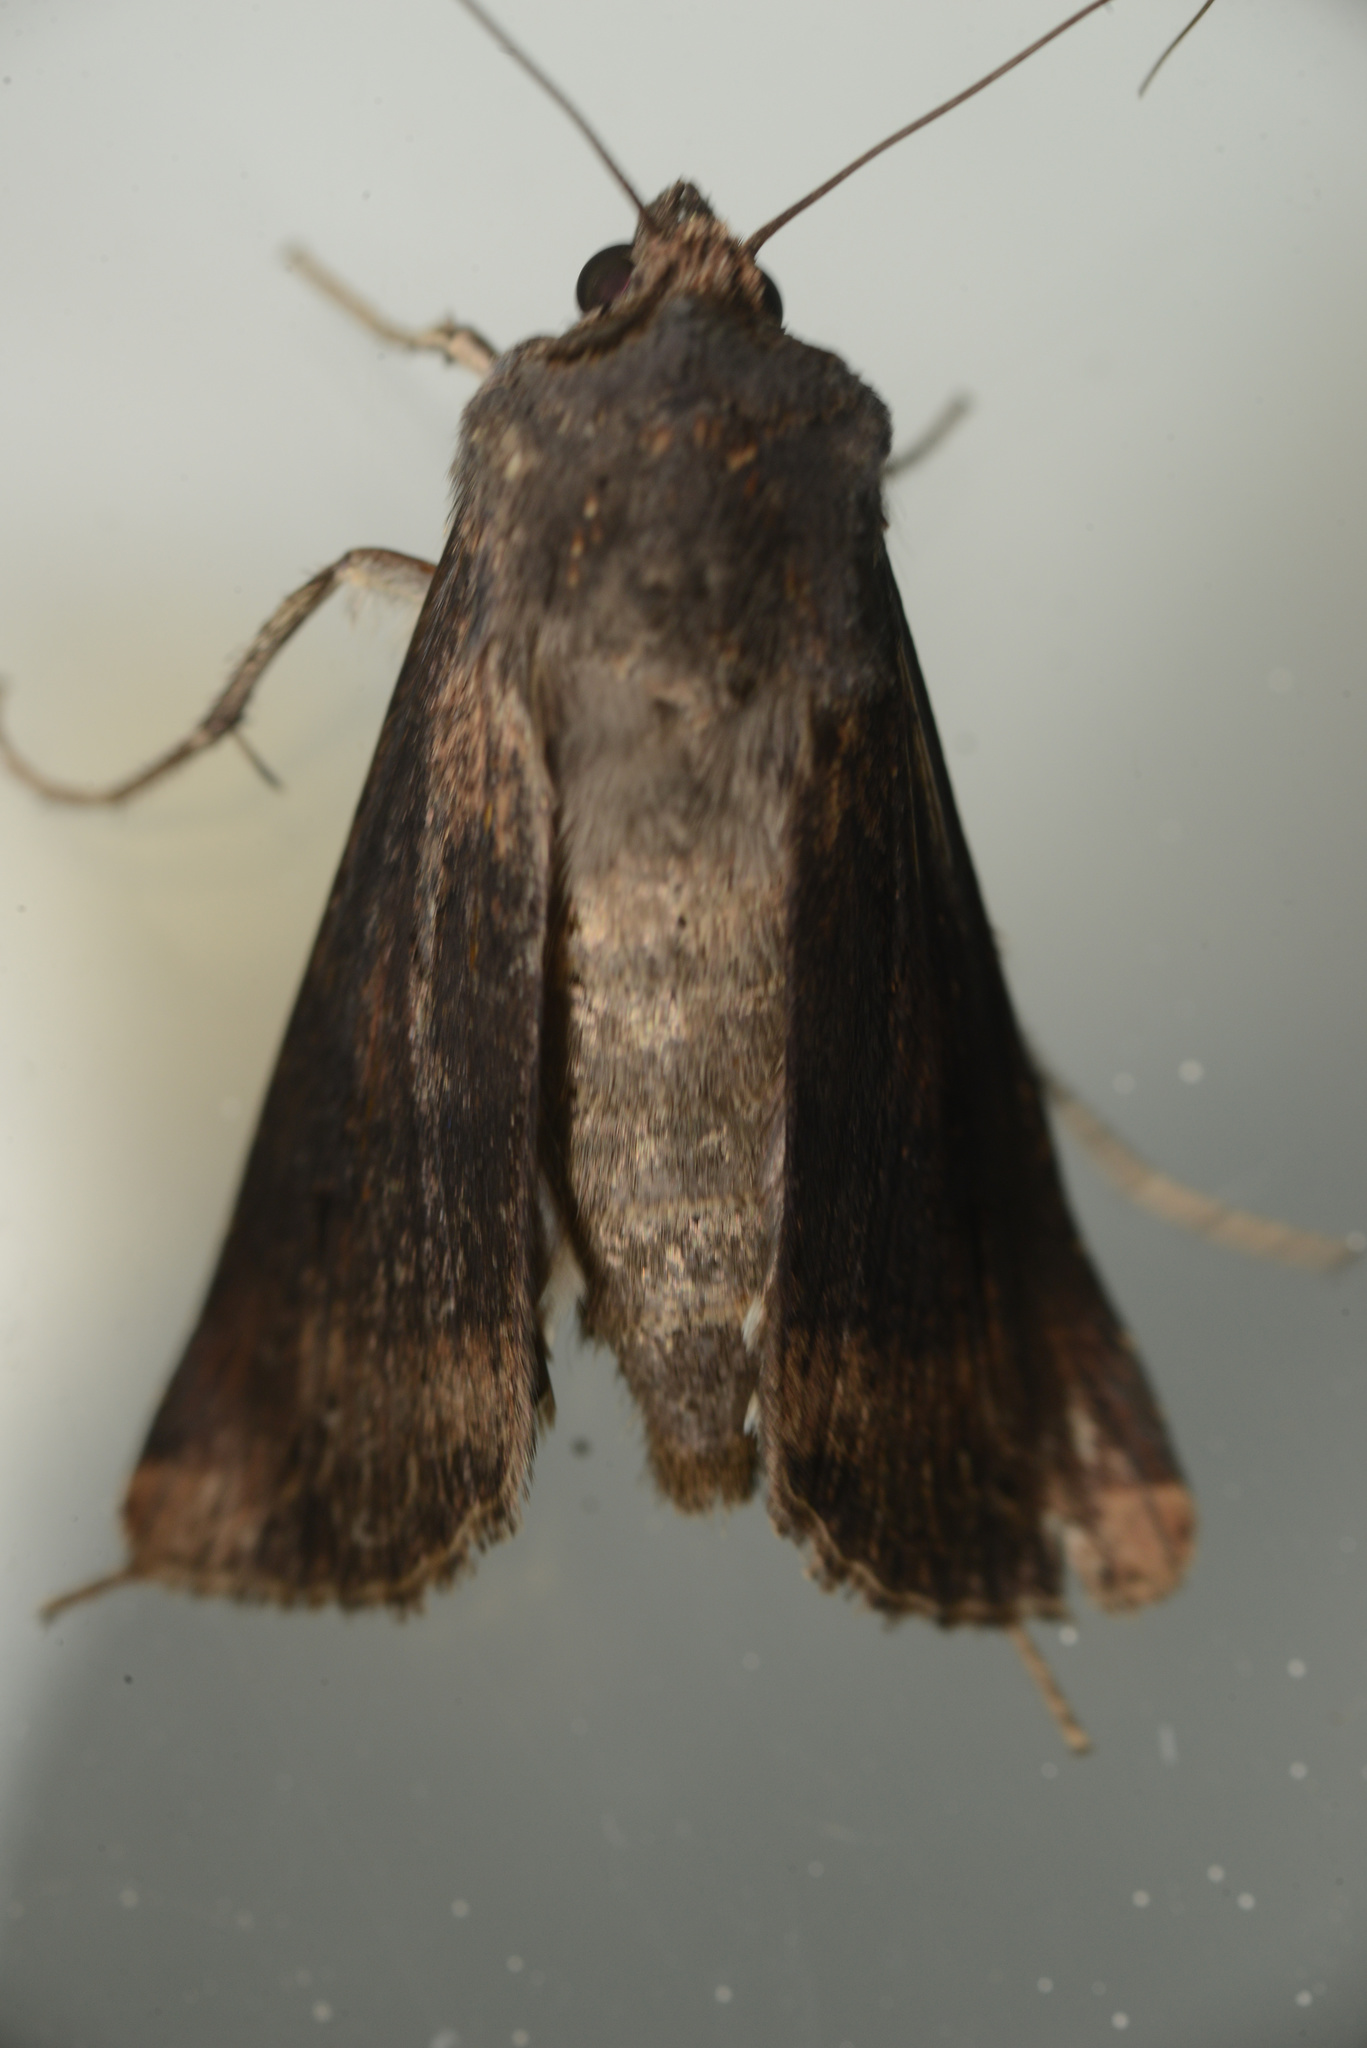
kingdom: Animalia
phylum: Arthropoda
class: Insecta
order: Lepidoptera
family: Noctuidae
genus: Agrotis
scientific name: Agrotis ipsilon
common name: Dark sword-grass
